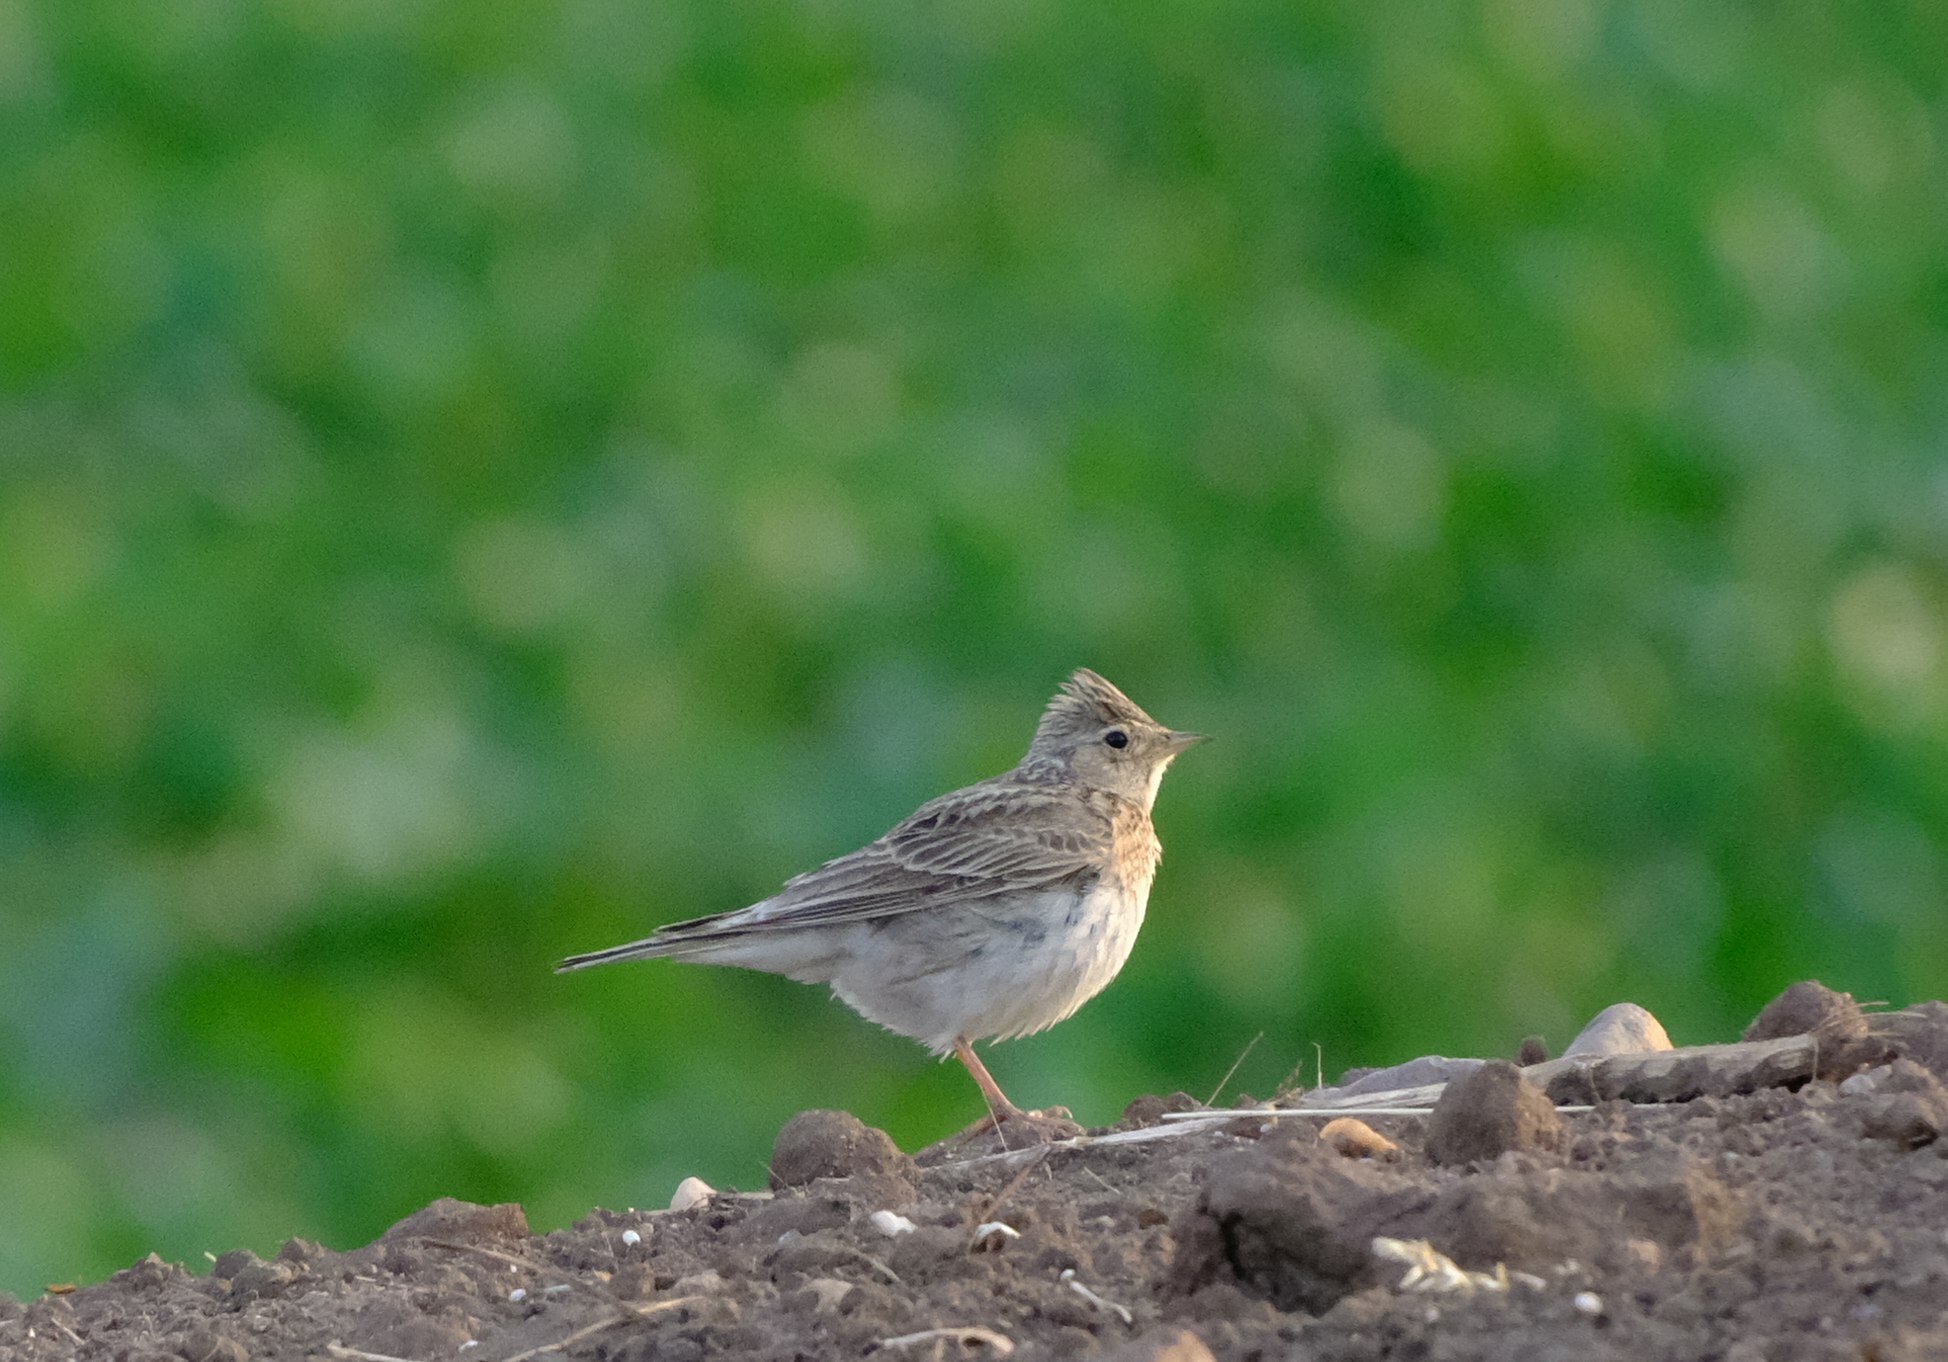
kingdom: Animalia
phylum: Chordata
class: Aves
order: Passeriformes
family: Alaudidae
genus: Alauda
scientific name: Alauda arvensis
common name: Eurasian skylark
